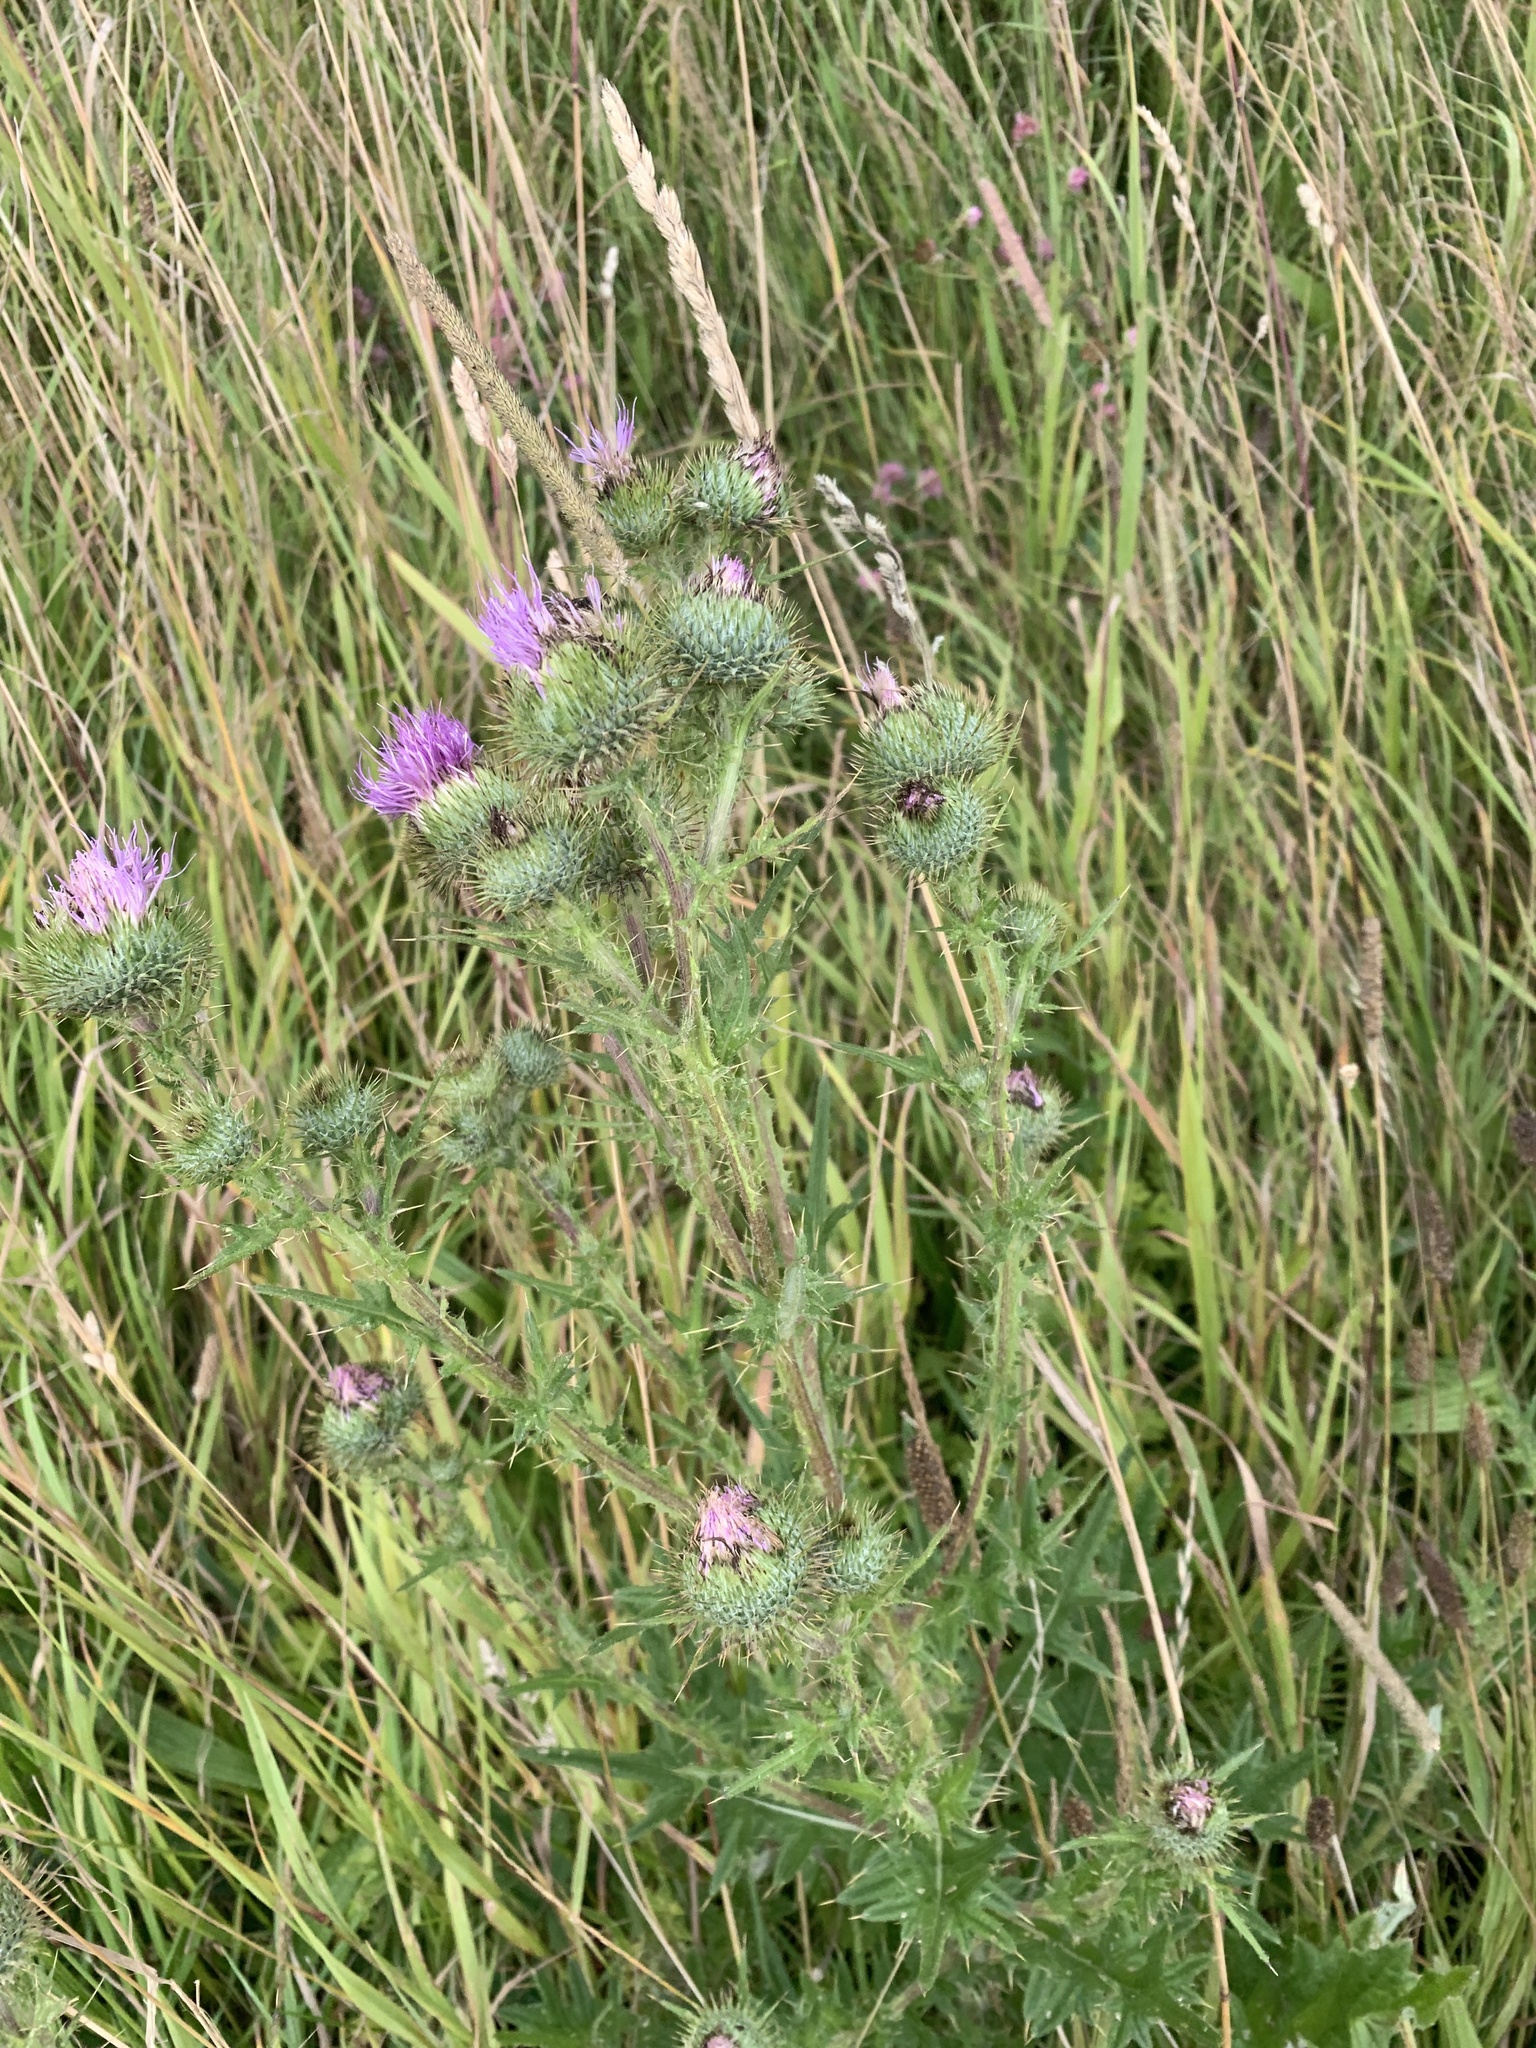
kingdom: Plantae
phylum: Tracheophyta
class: Magnoliopsida
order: Asterales
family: Asteraceae
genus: Cirsium
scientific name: Cirsium vulgare
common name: Bull thistle
